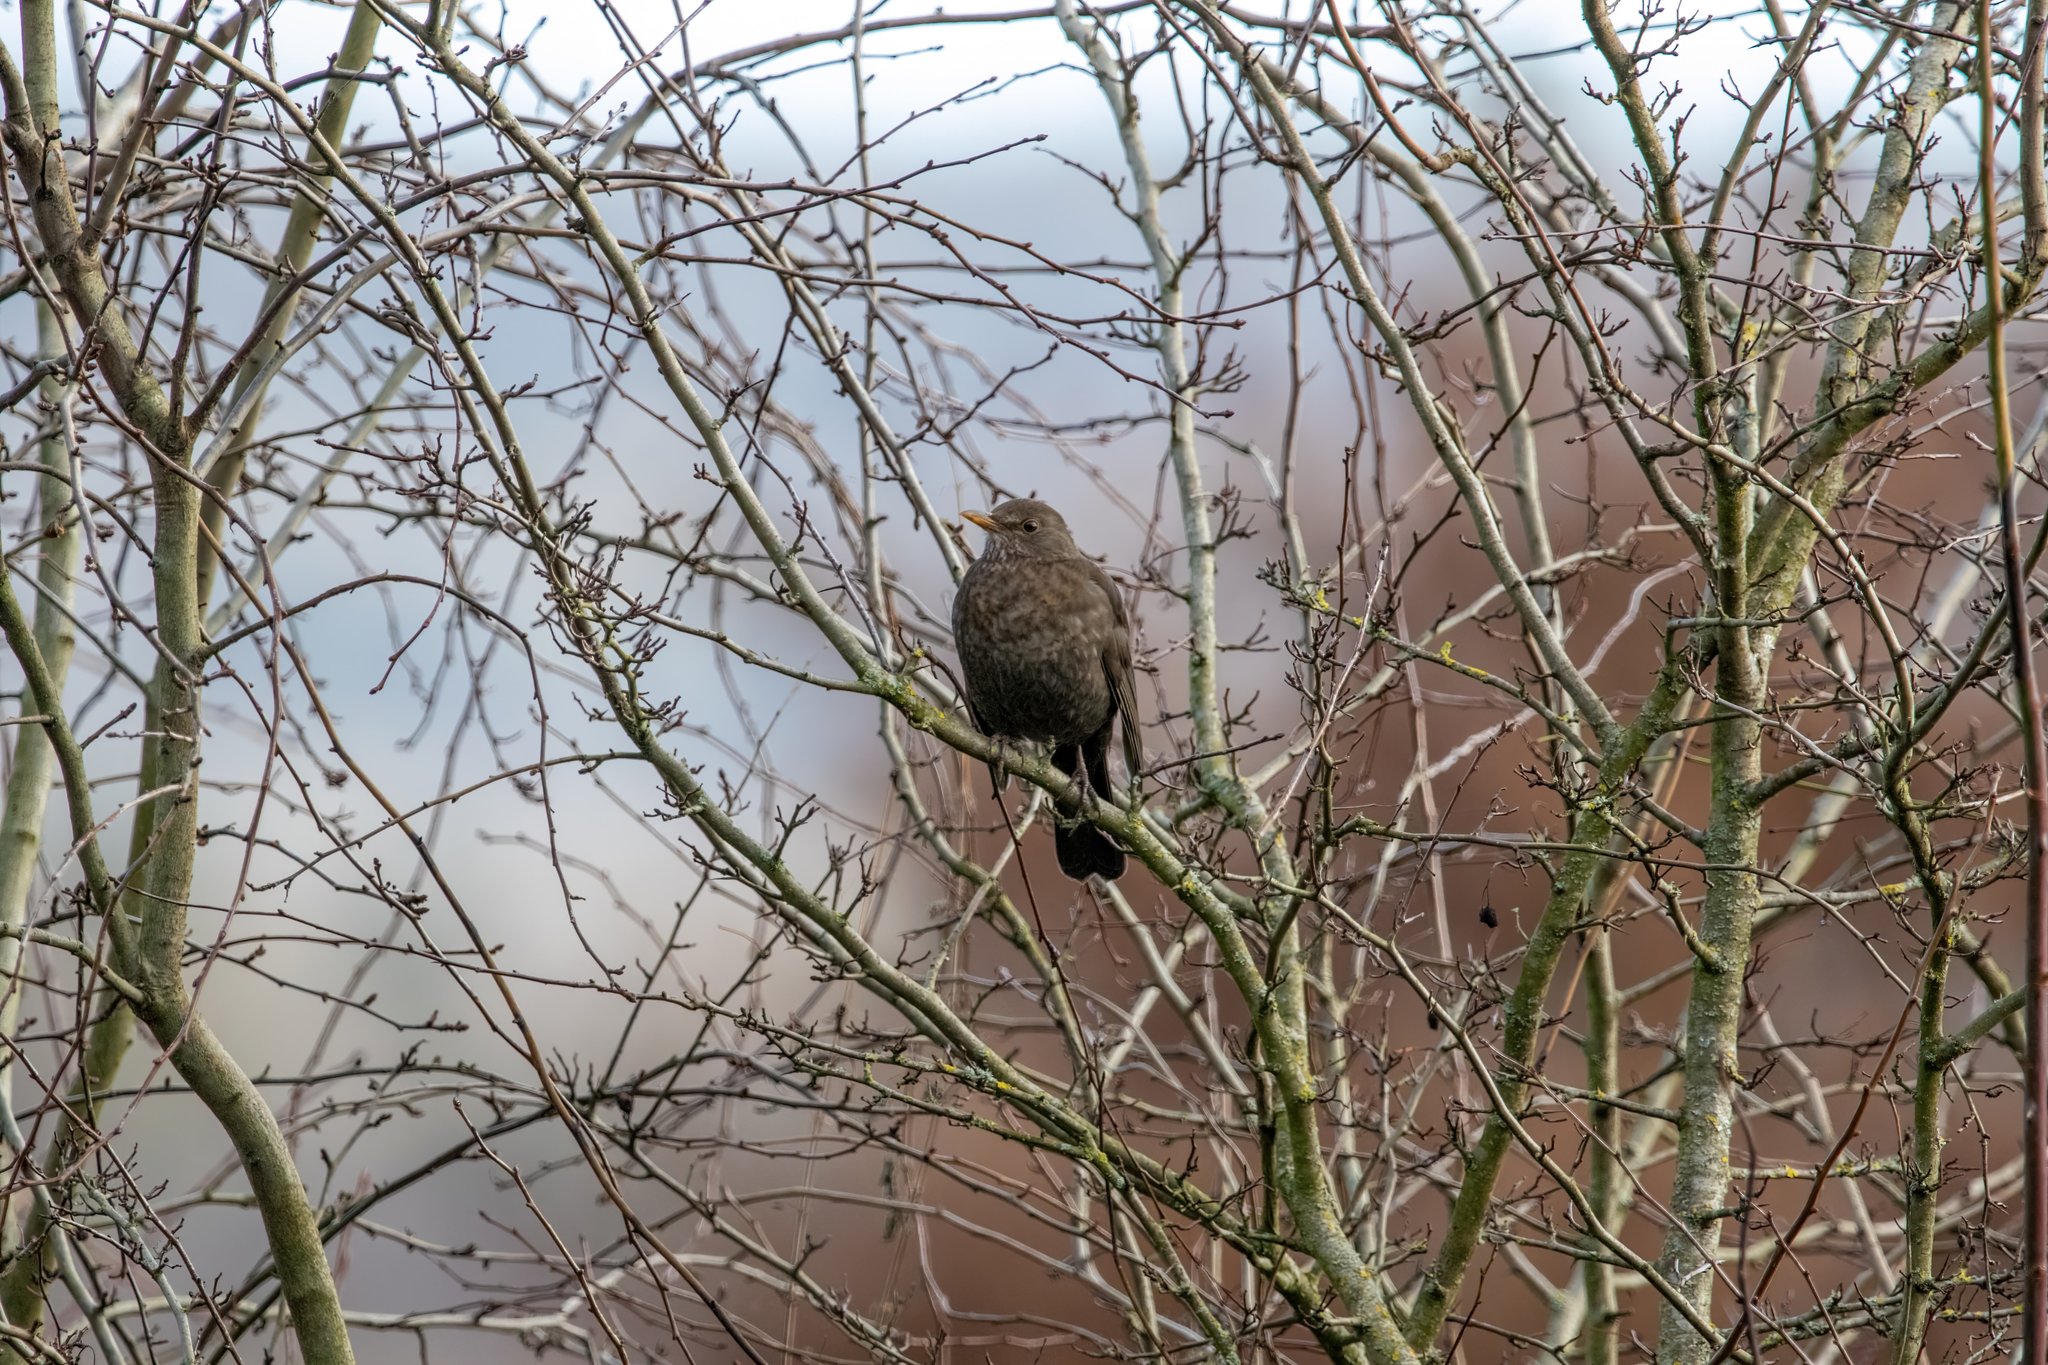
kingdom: Animalia
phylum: Chordata
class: Aves
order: Passeriformes
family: Turdidae
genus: Turdus
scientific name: Turdus merula
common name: Common blackbird
